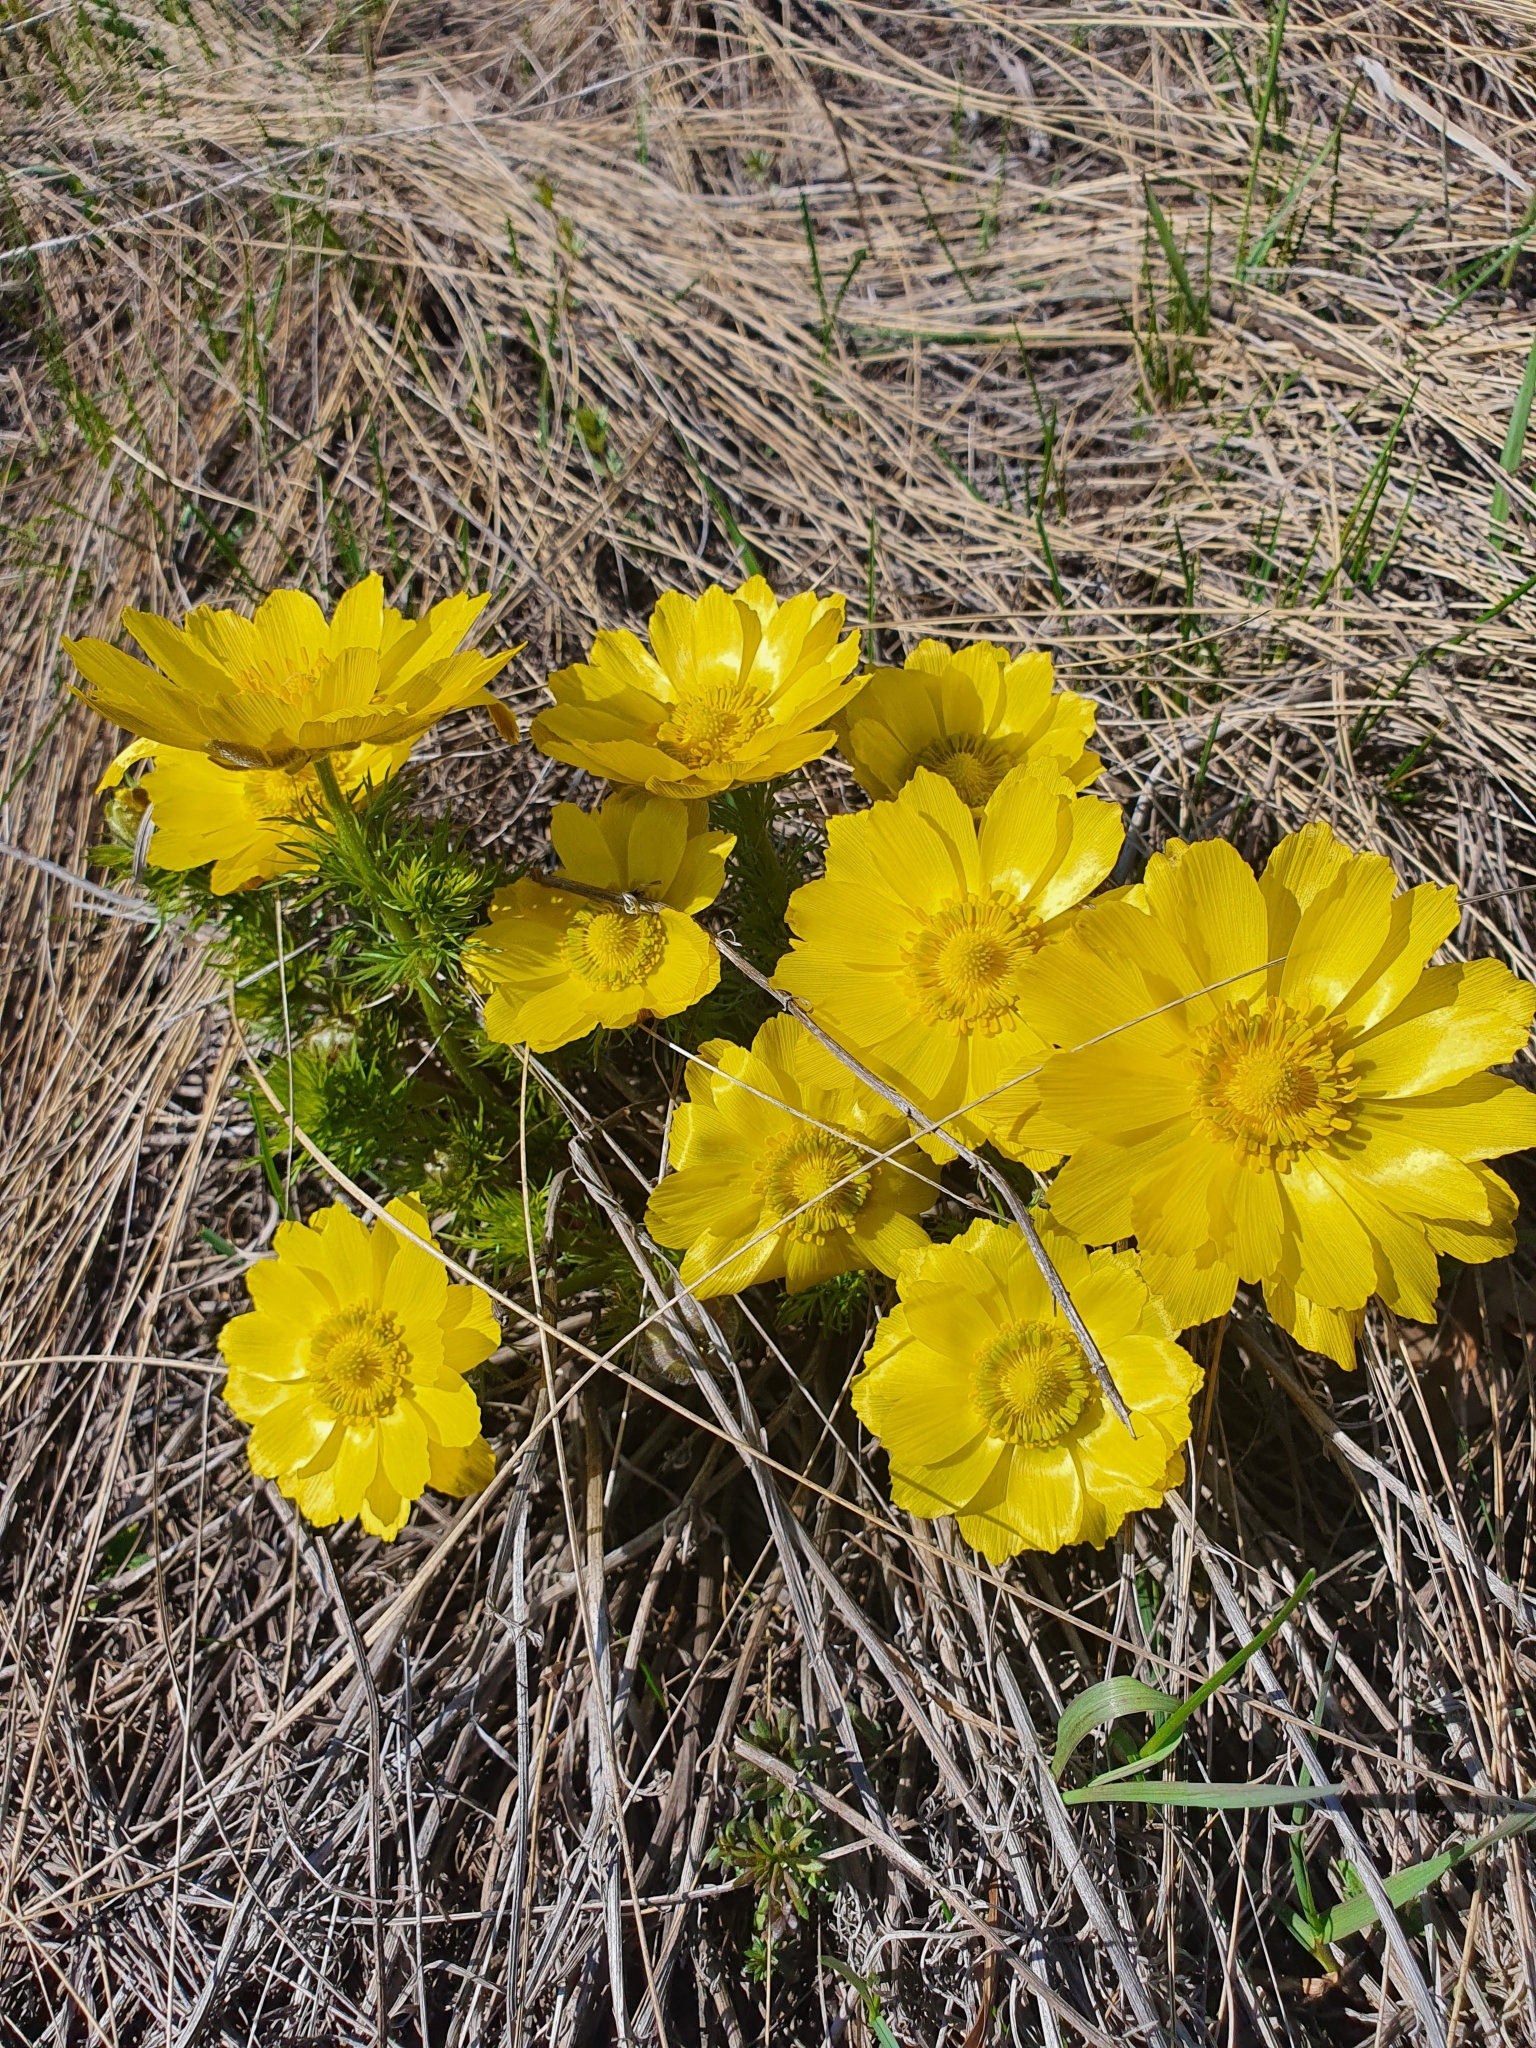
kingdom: Plantae
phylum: Tracheophyta
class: Magnoliopsida
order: Ranunculales
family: Ranunculaceae
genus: Adonis
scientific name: Adonis vernalis
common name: Yellow pheasants-eye
